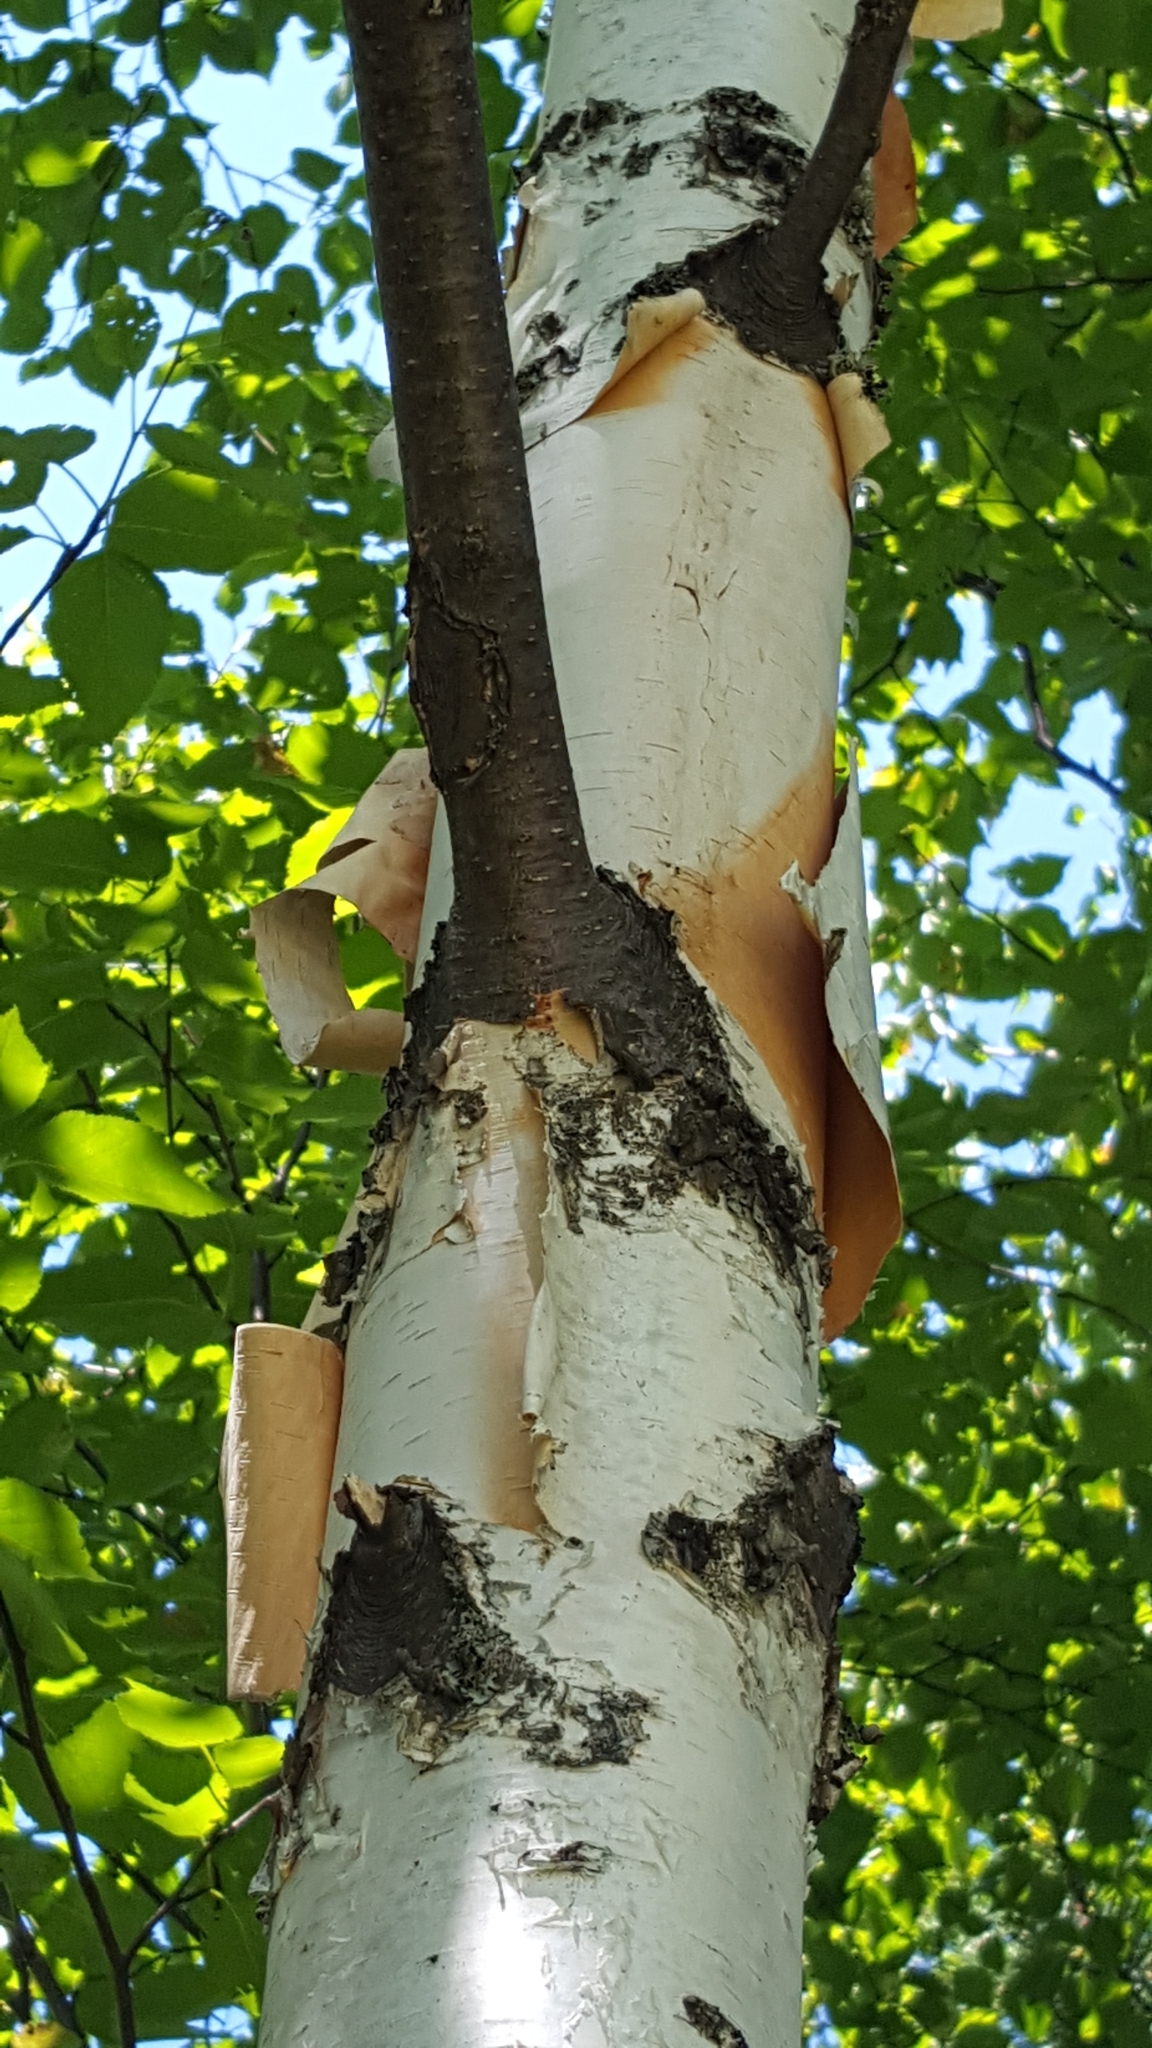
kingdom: Plantae
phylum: Tracheophyta
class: Magnoliopsida
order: Fagales
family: Betulaceae
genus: Betula
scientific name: Betula papyrifera
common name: Paper birch
